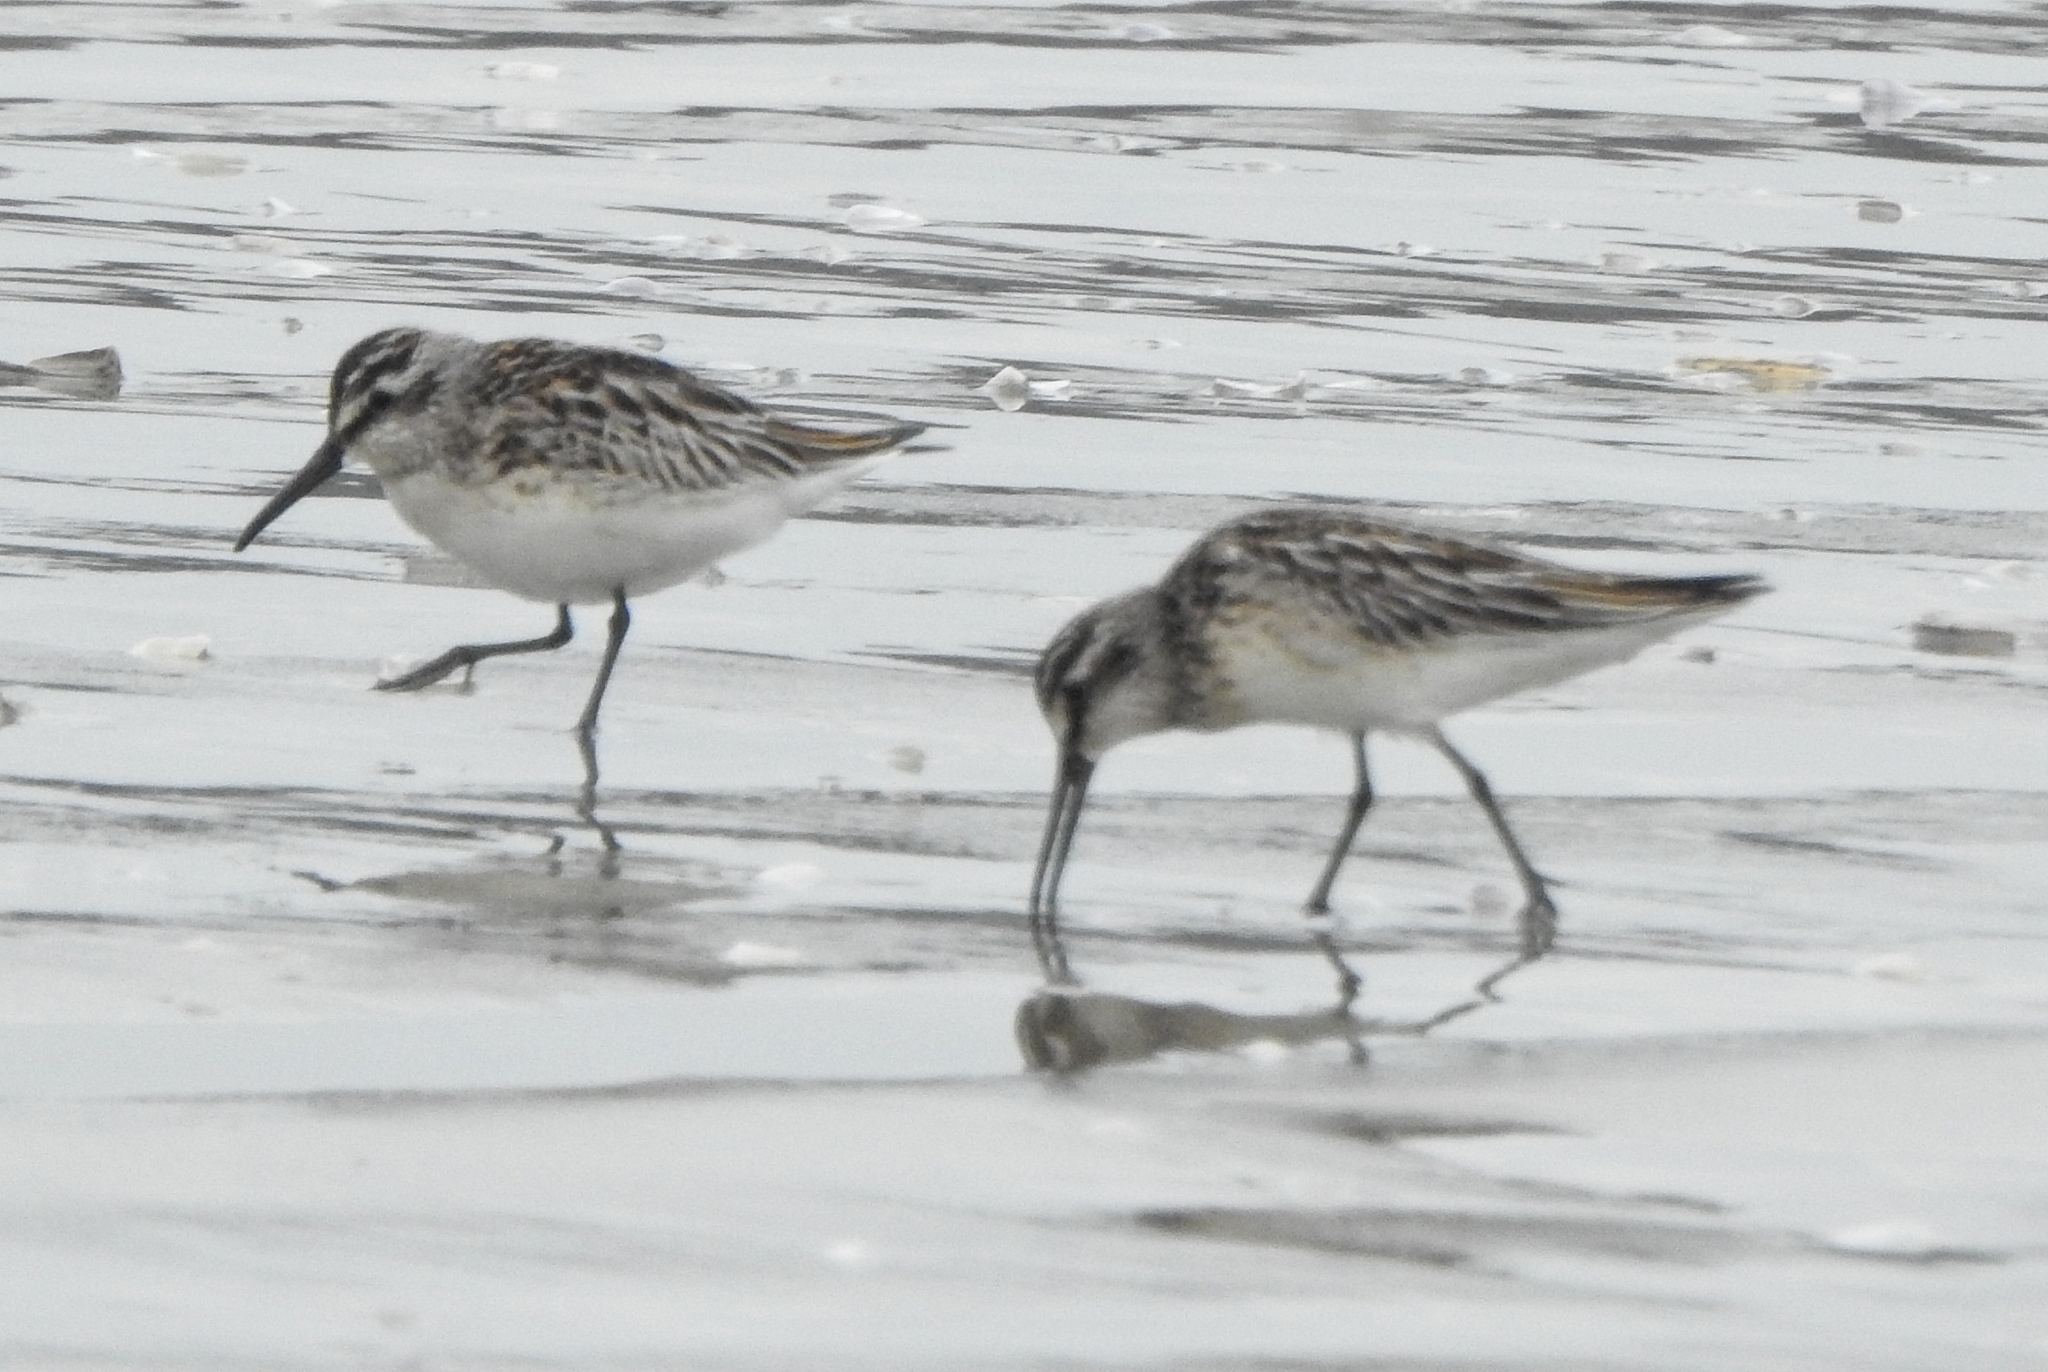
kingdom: Animalia
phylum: Chordata
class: Aves
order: Charadriiformes
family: Scolopacidae
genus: Calidris
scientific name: Calidris falcinellus
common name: Broad-billed sandpiper
